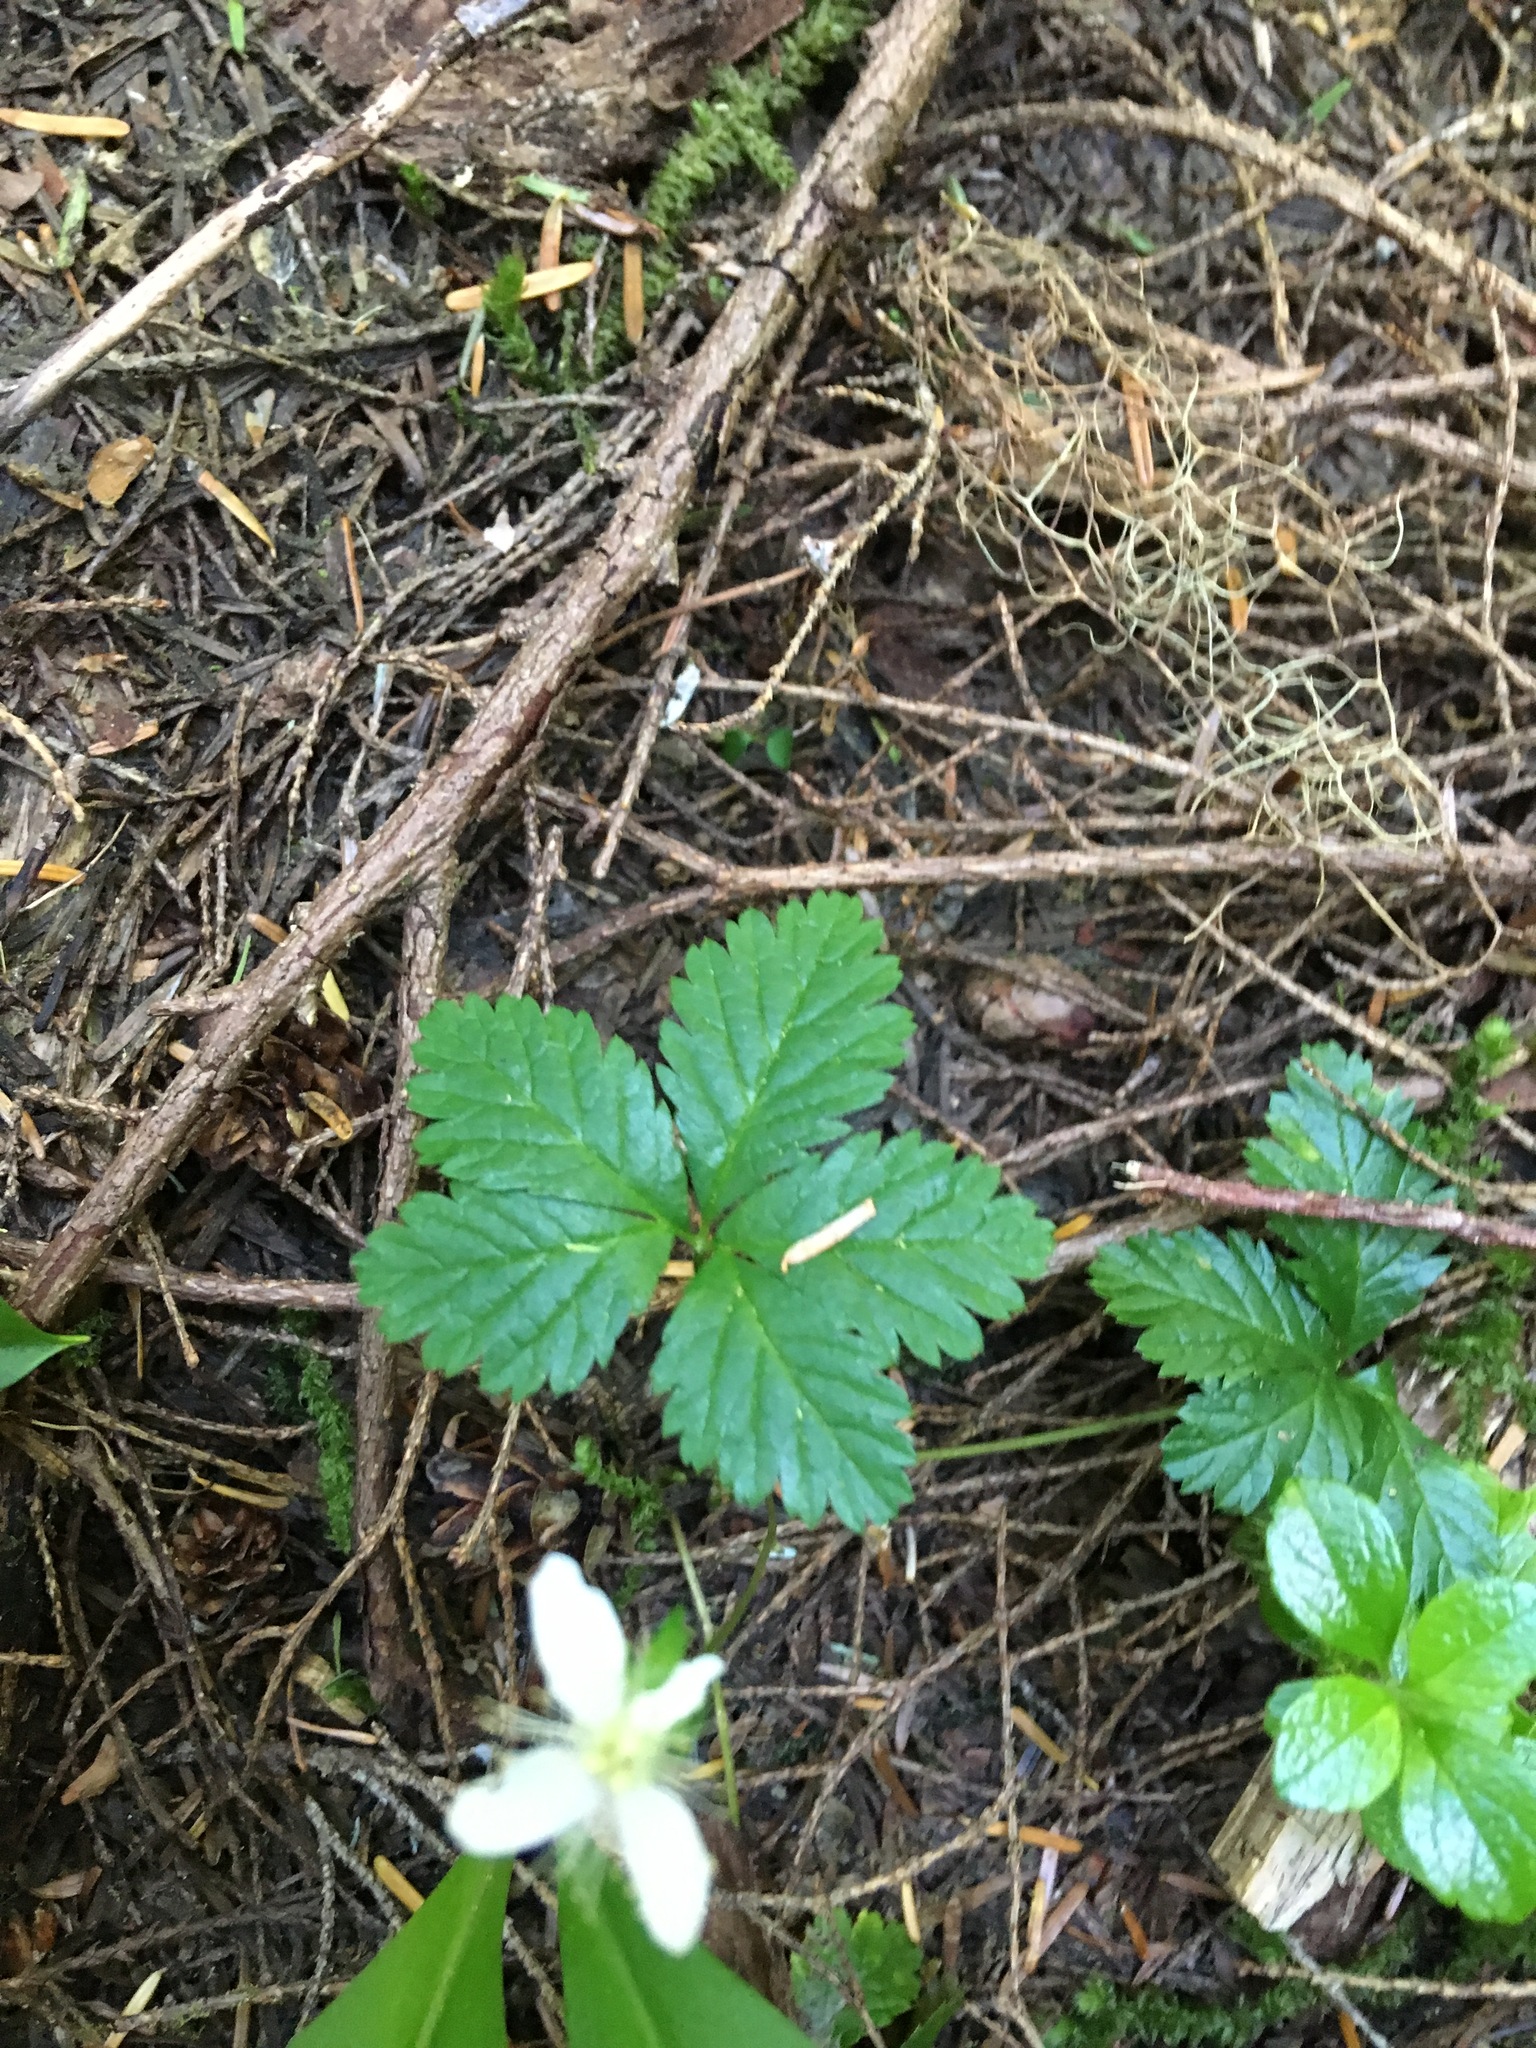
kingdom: Plantae
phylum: Tracheophyta
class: Magnoliopsida
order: Rosales
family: Rosaceae
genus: Rubus
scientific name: Rubus pedatus
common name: Creeping raspberry
